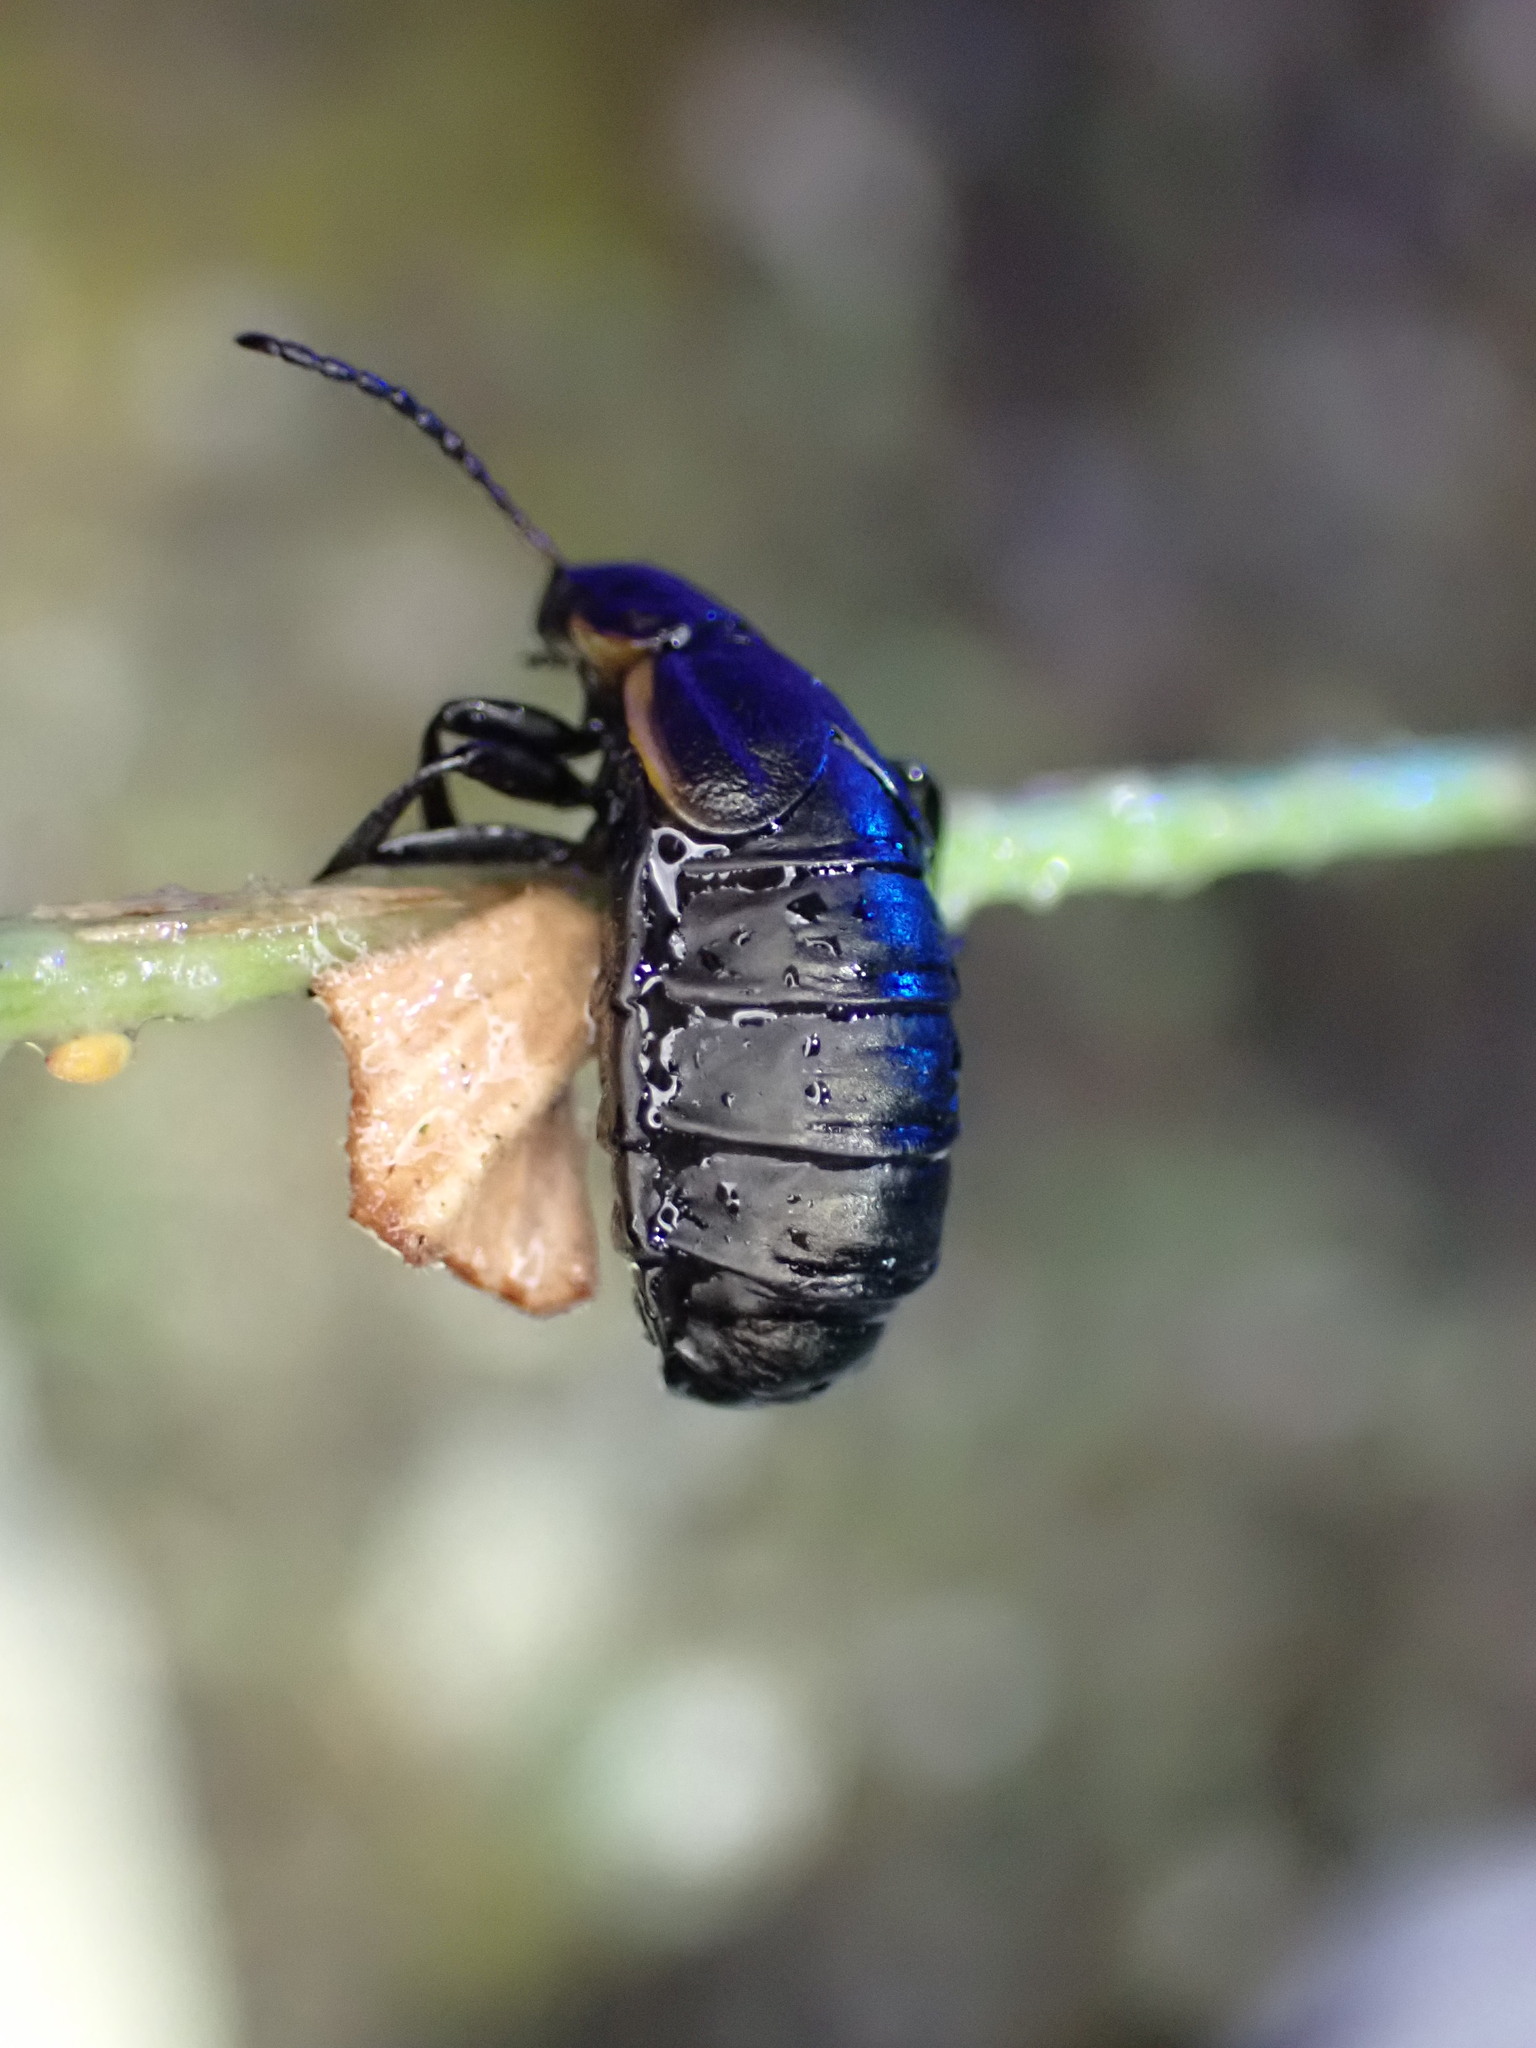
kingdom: Animalia
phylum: Arthropoda
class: Insecta
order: Coleoptera
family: Chrysomelidae
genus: Arima
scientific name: Arima marginata
